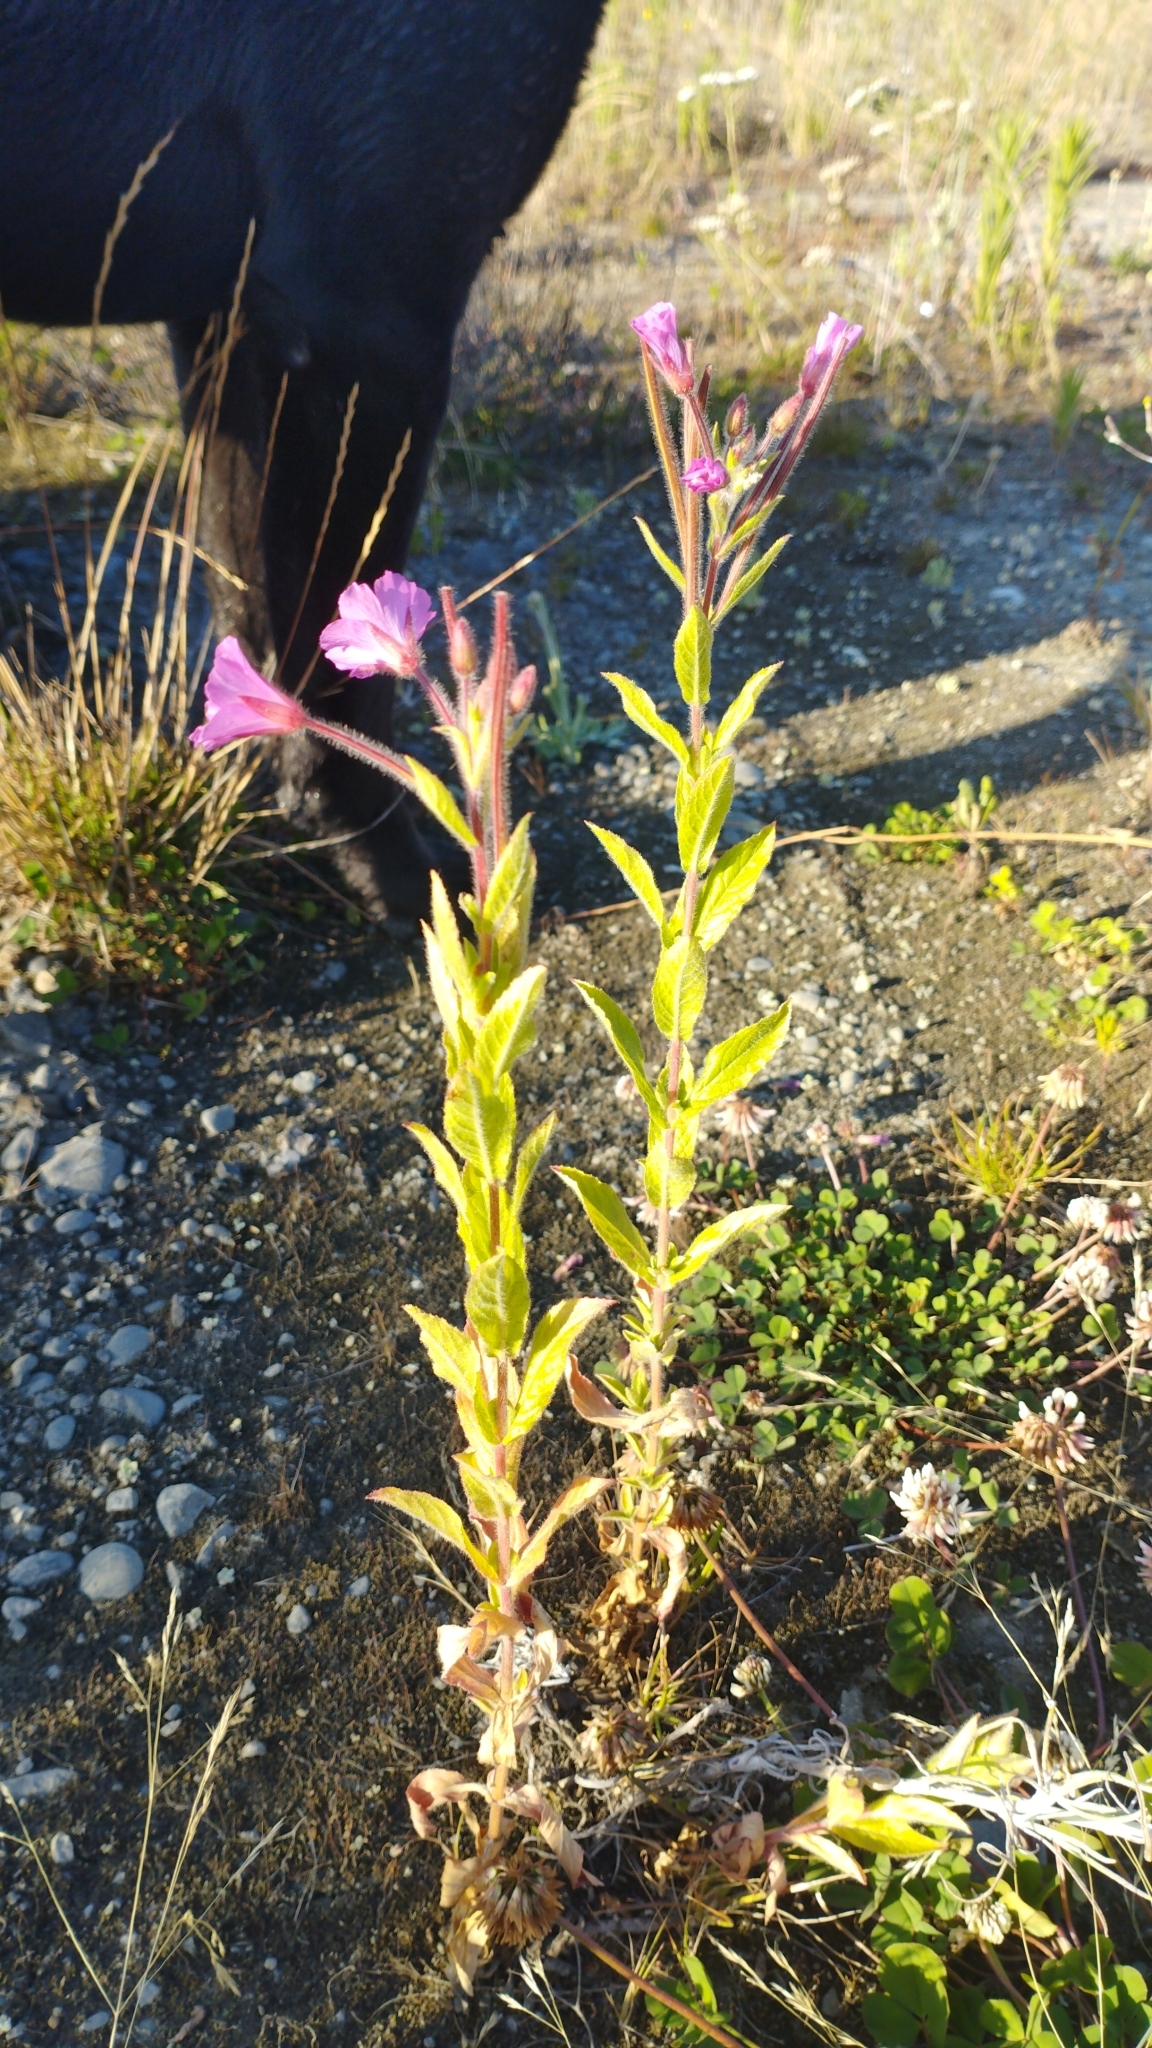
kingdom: Plantae
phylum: Tracheophyta
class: Magnoliopsida
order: Myrtales
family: Onagraceae
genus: Epilobium
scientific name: Epilobium hirsutum
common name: Great willowherb
